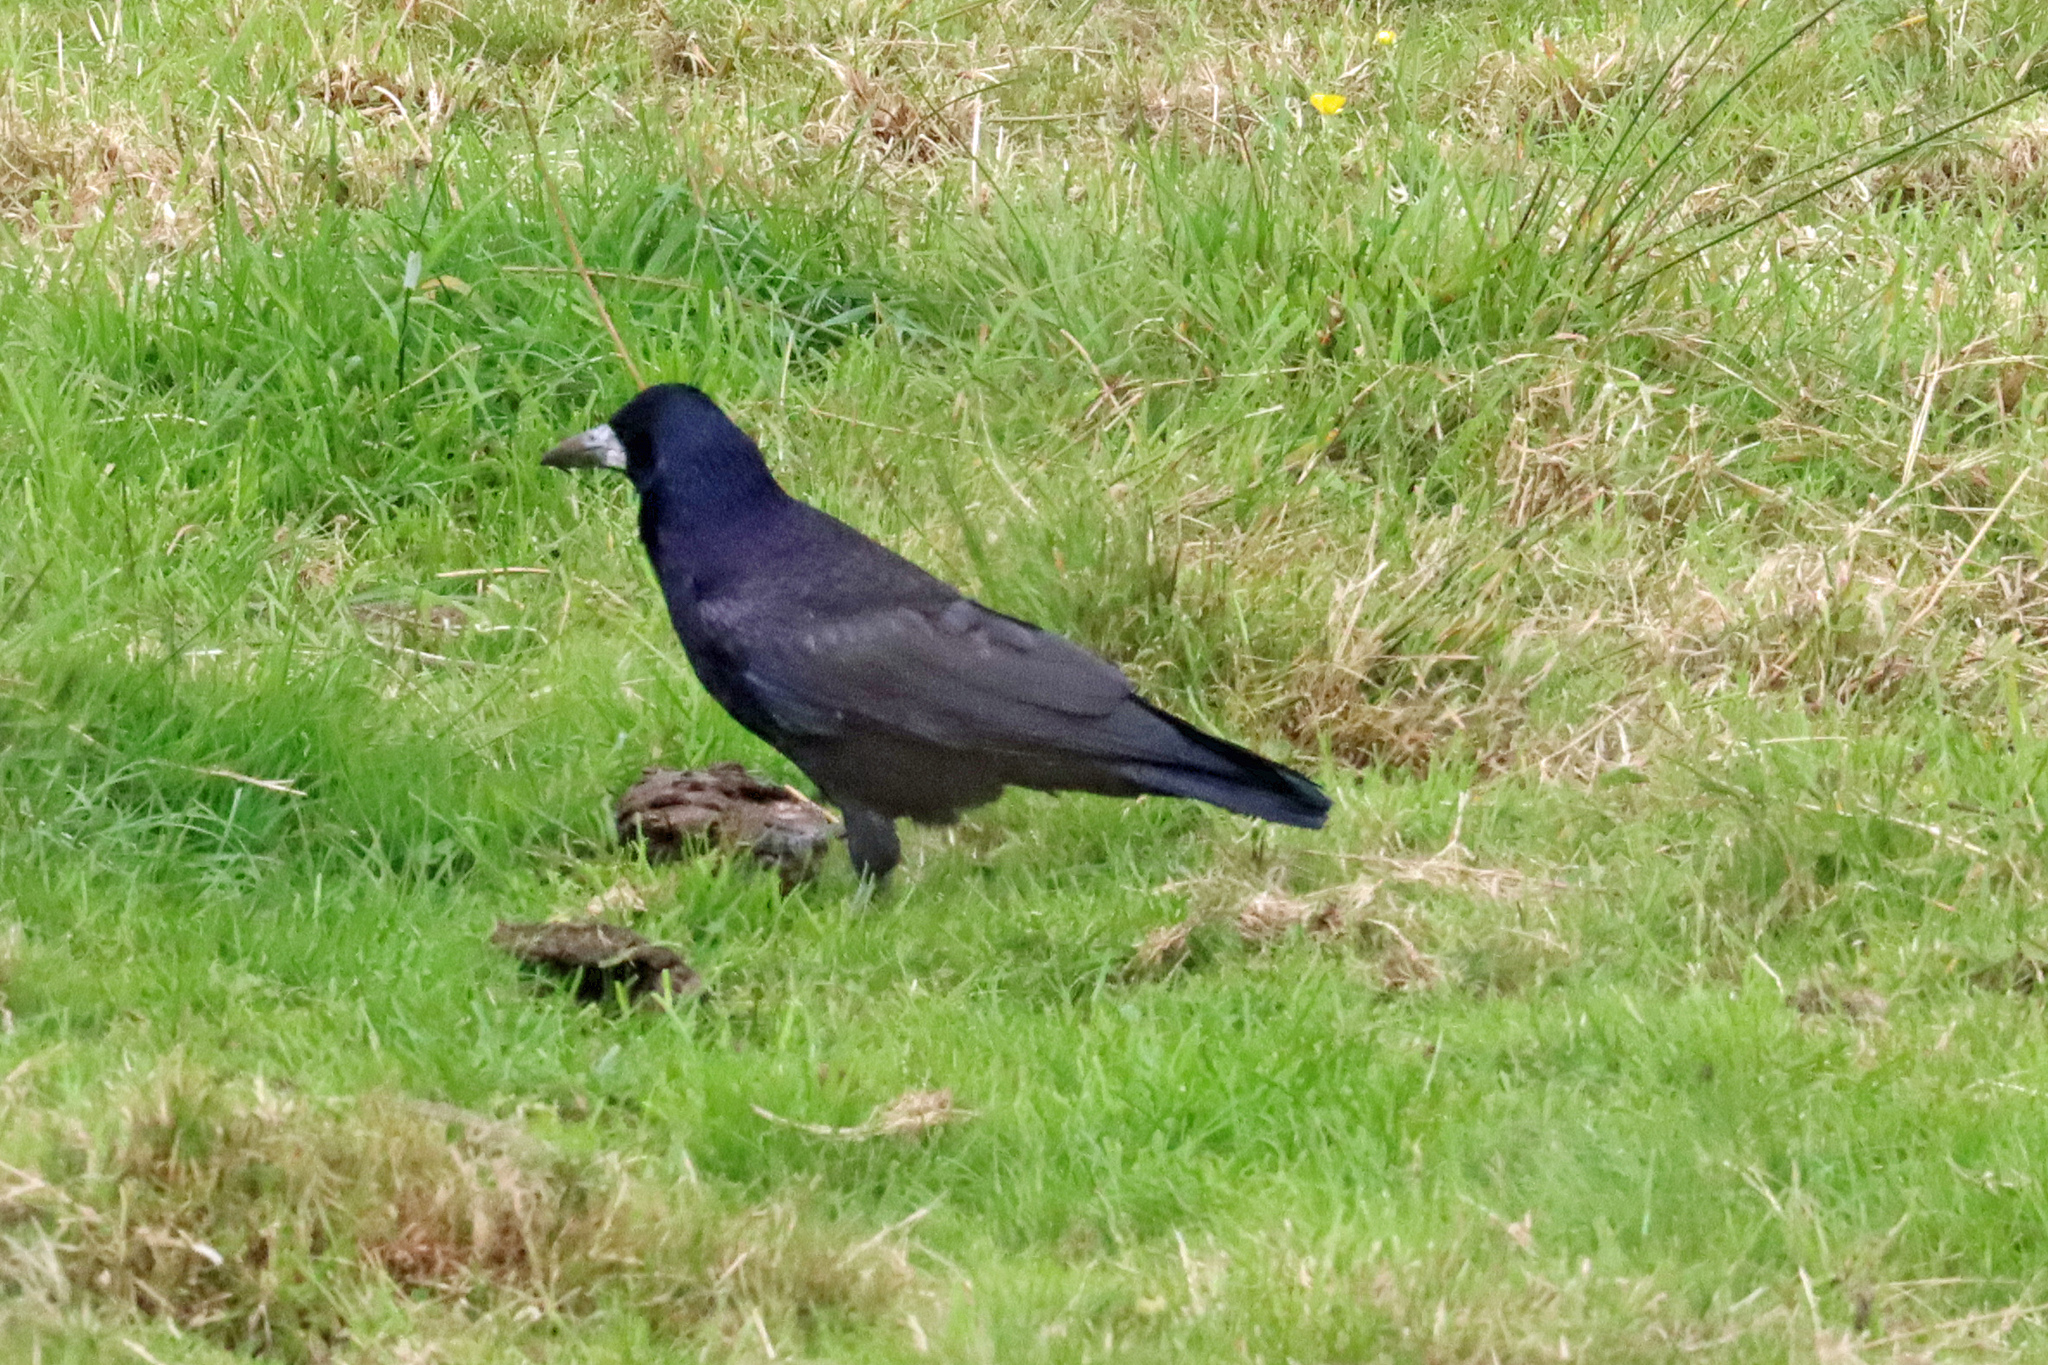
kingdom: Animalia
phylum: Chordata
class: Aves
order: Passeriformes
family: Corvidae
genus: Corvus
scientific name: Corvus frugilegus
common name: Rook
